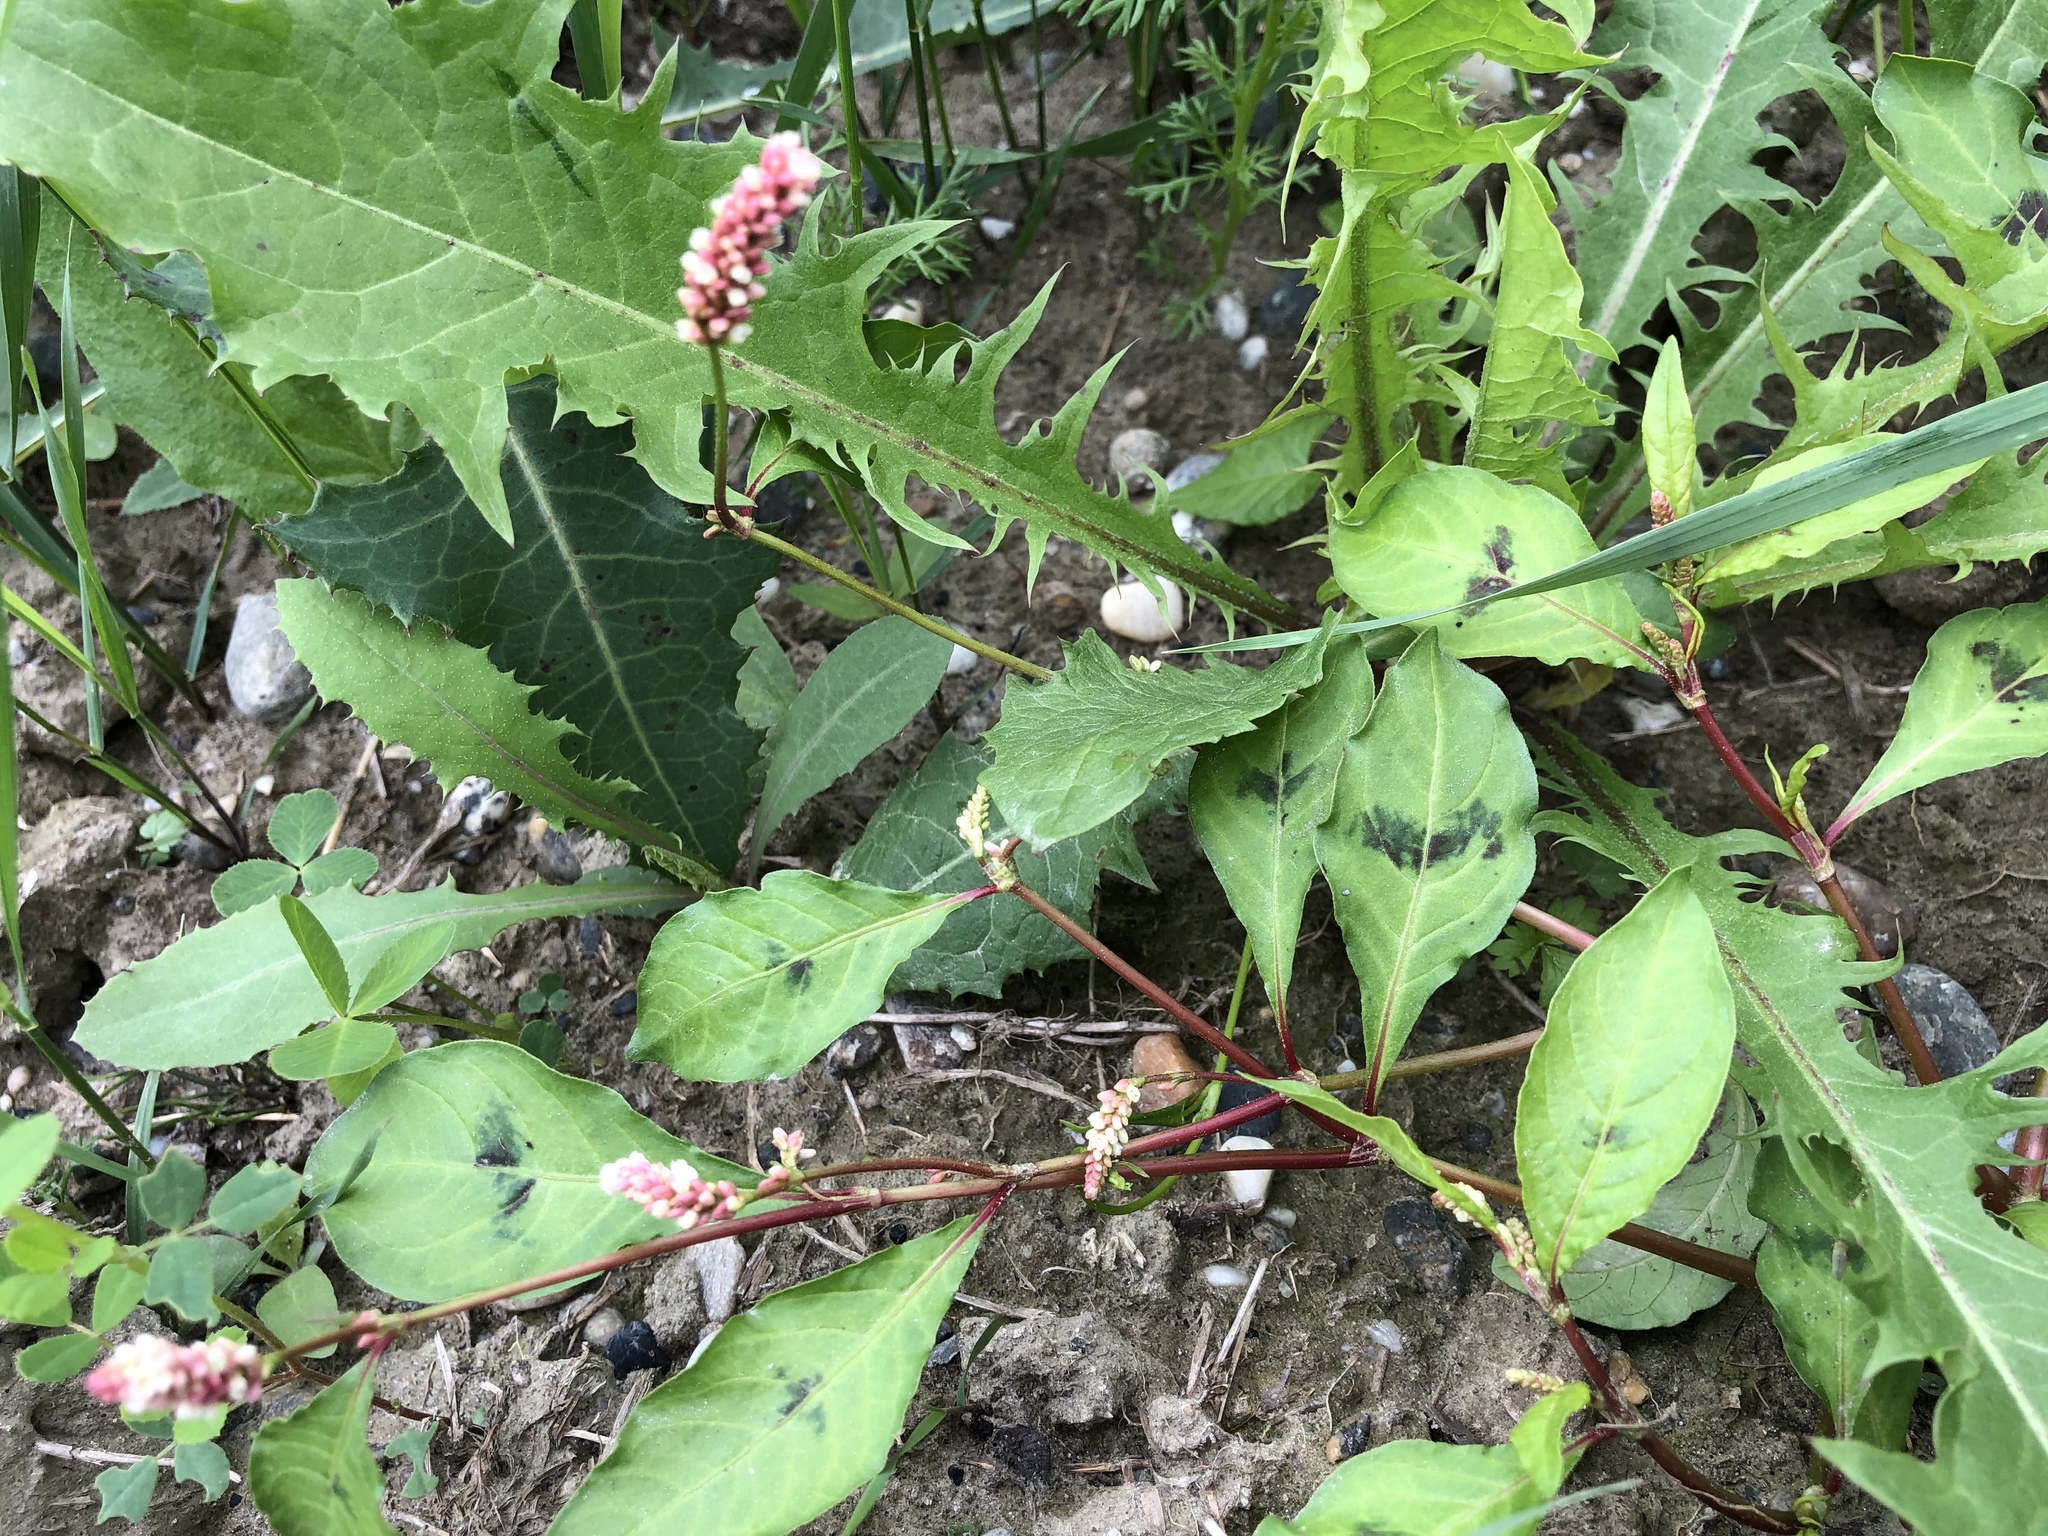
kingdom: Plantae
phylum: Tracheophyta
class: Magnoliopsida
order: Caryophyllales
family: Polygonaceae
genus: Persicaria
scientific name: Persicaria lapathifolia
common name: Curlytop knotweed
